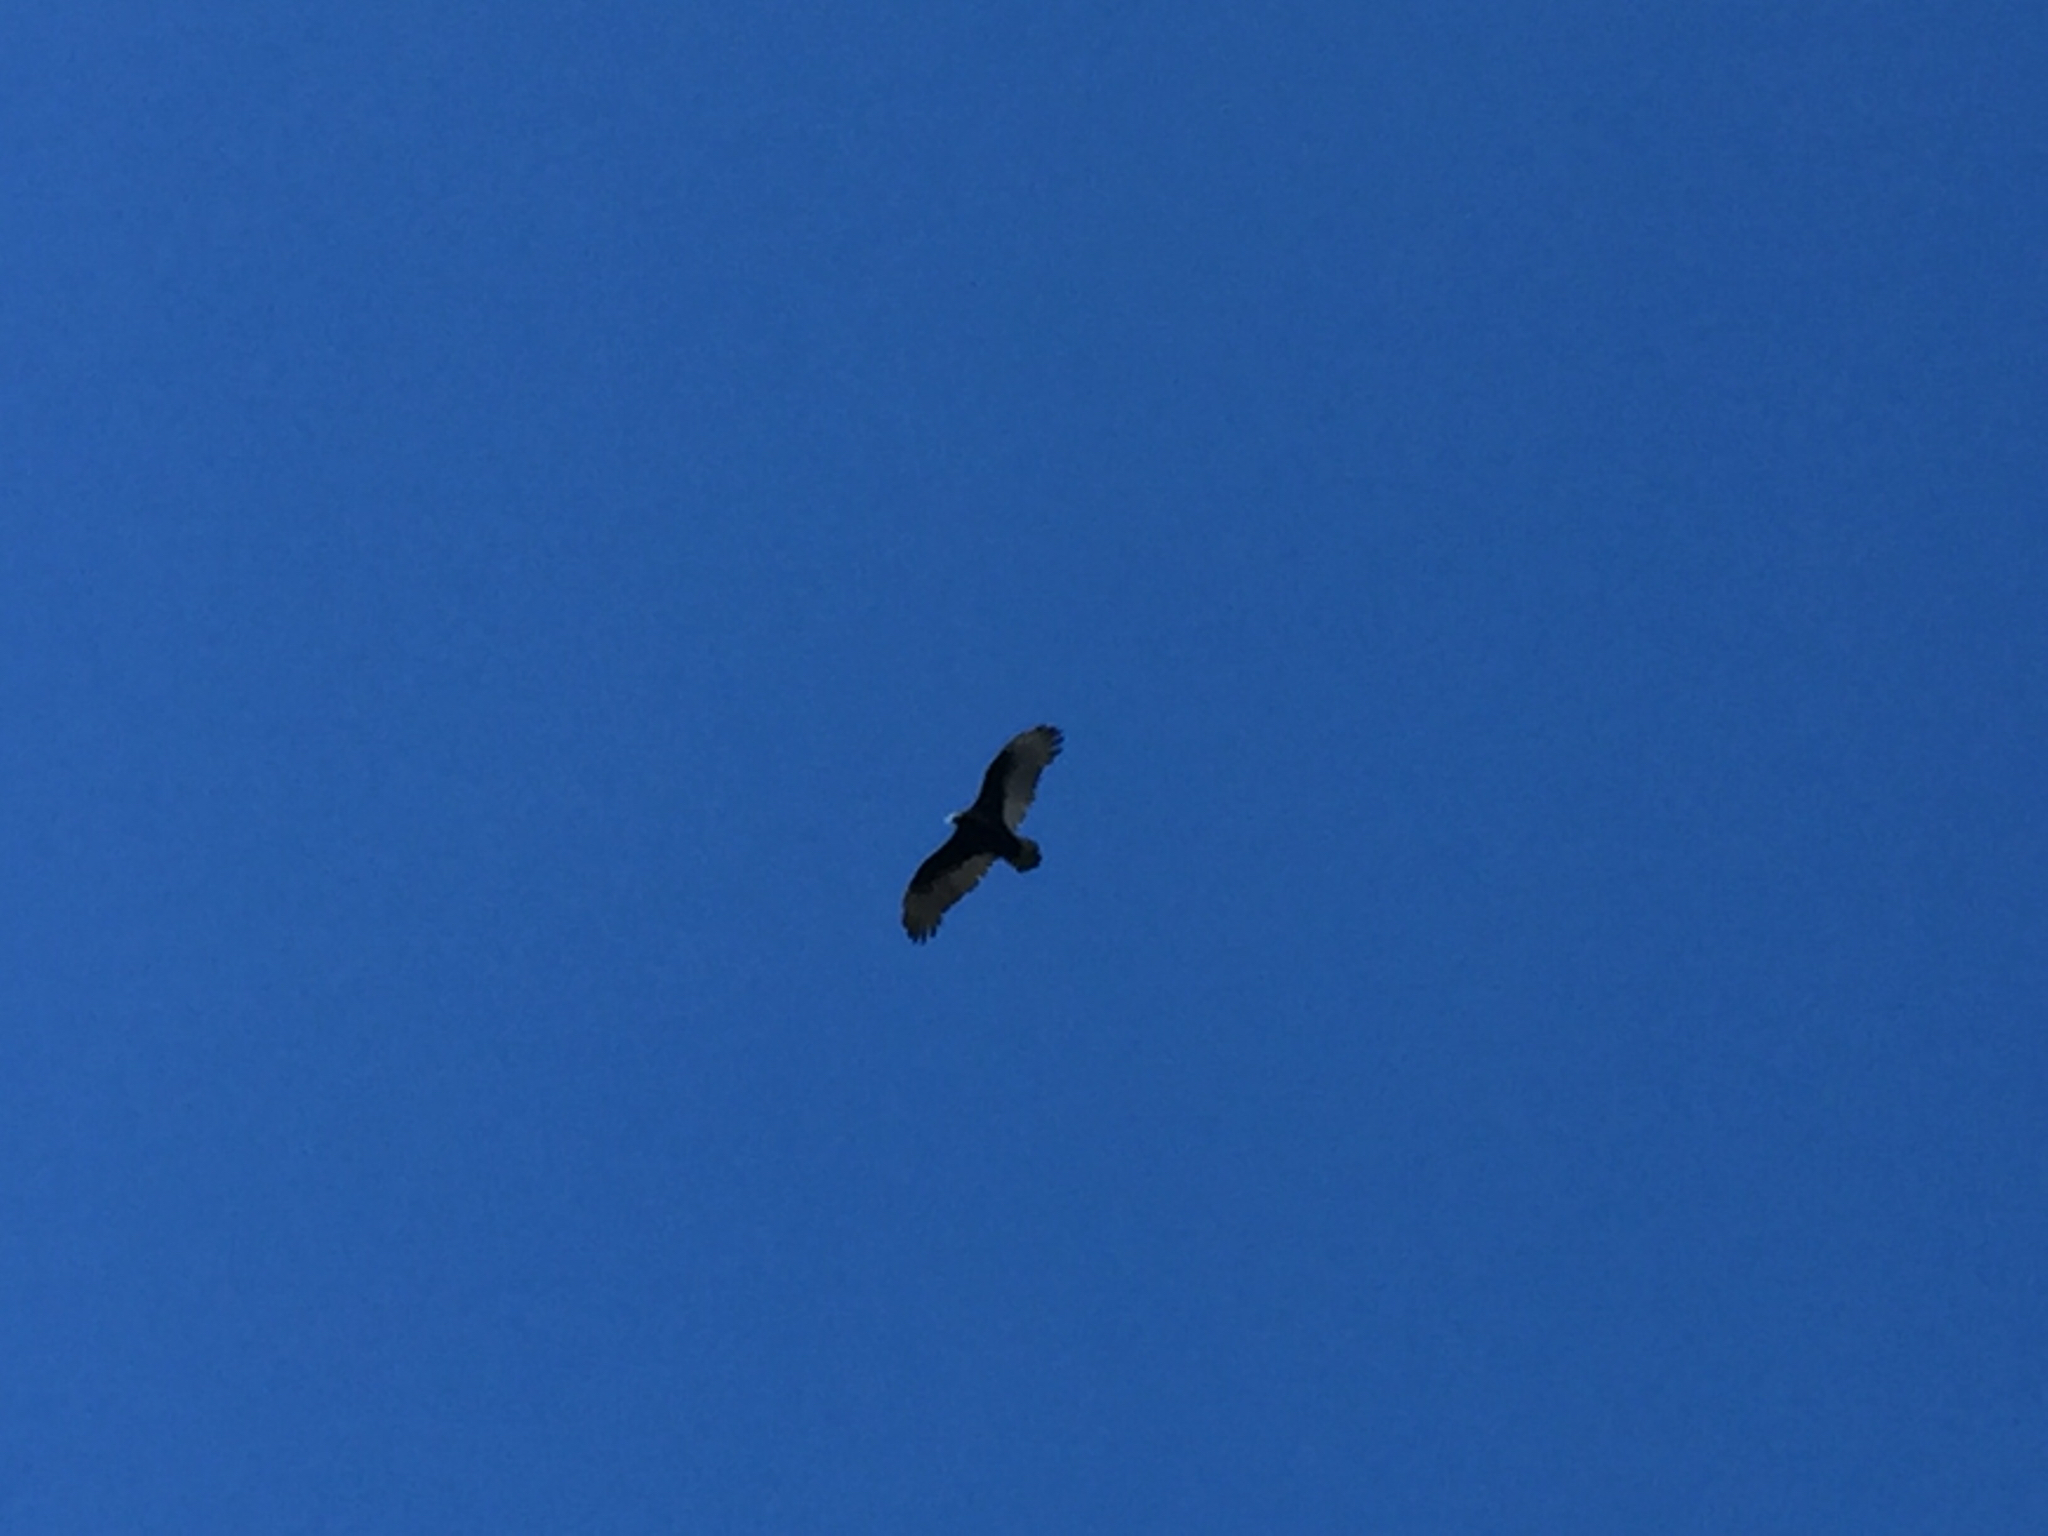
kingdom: Animalia
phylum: Chordata
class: Aves
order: Accipitriformes
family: Cathartidae
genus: Cathartes
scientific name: Cathartes aura
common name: Turkey vulture
